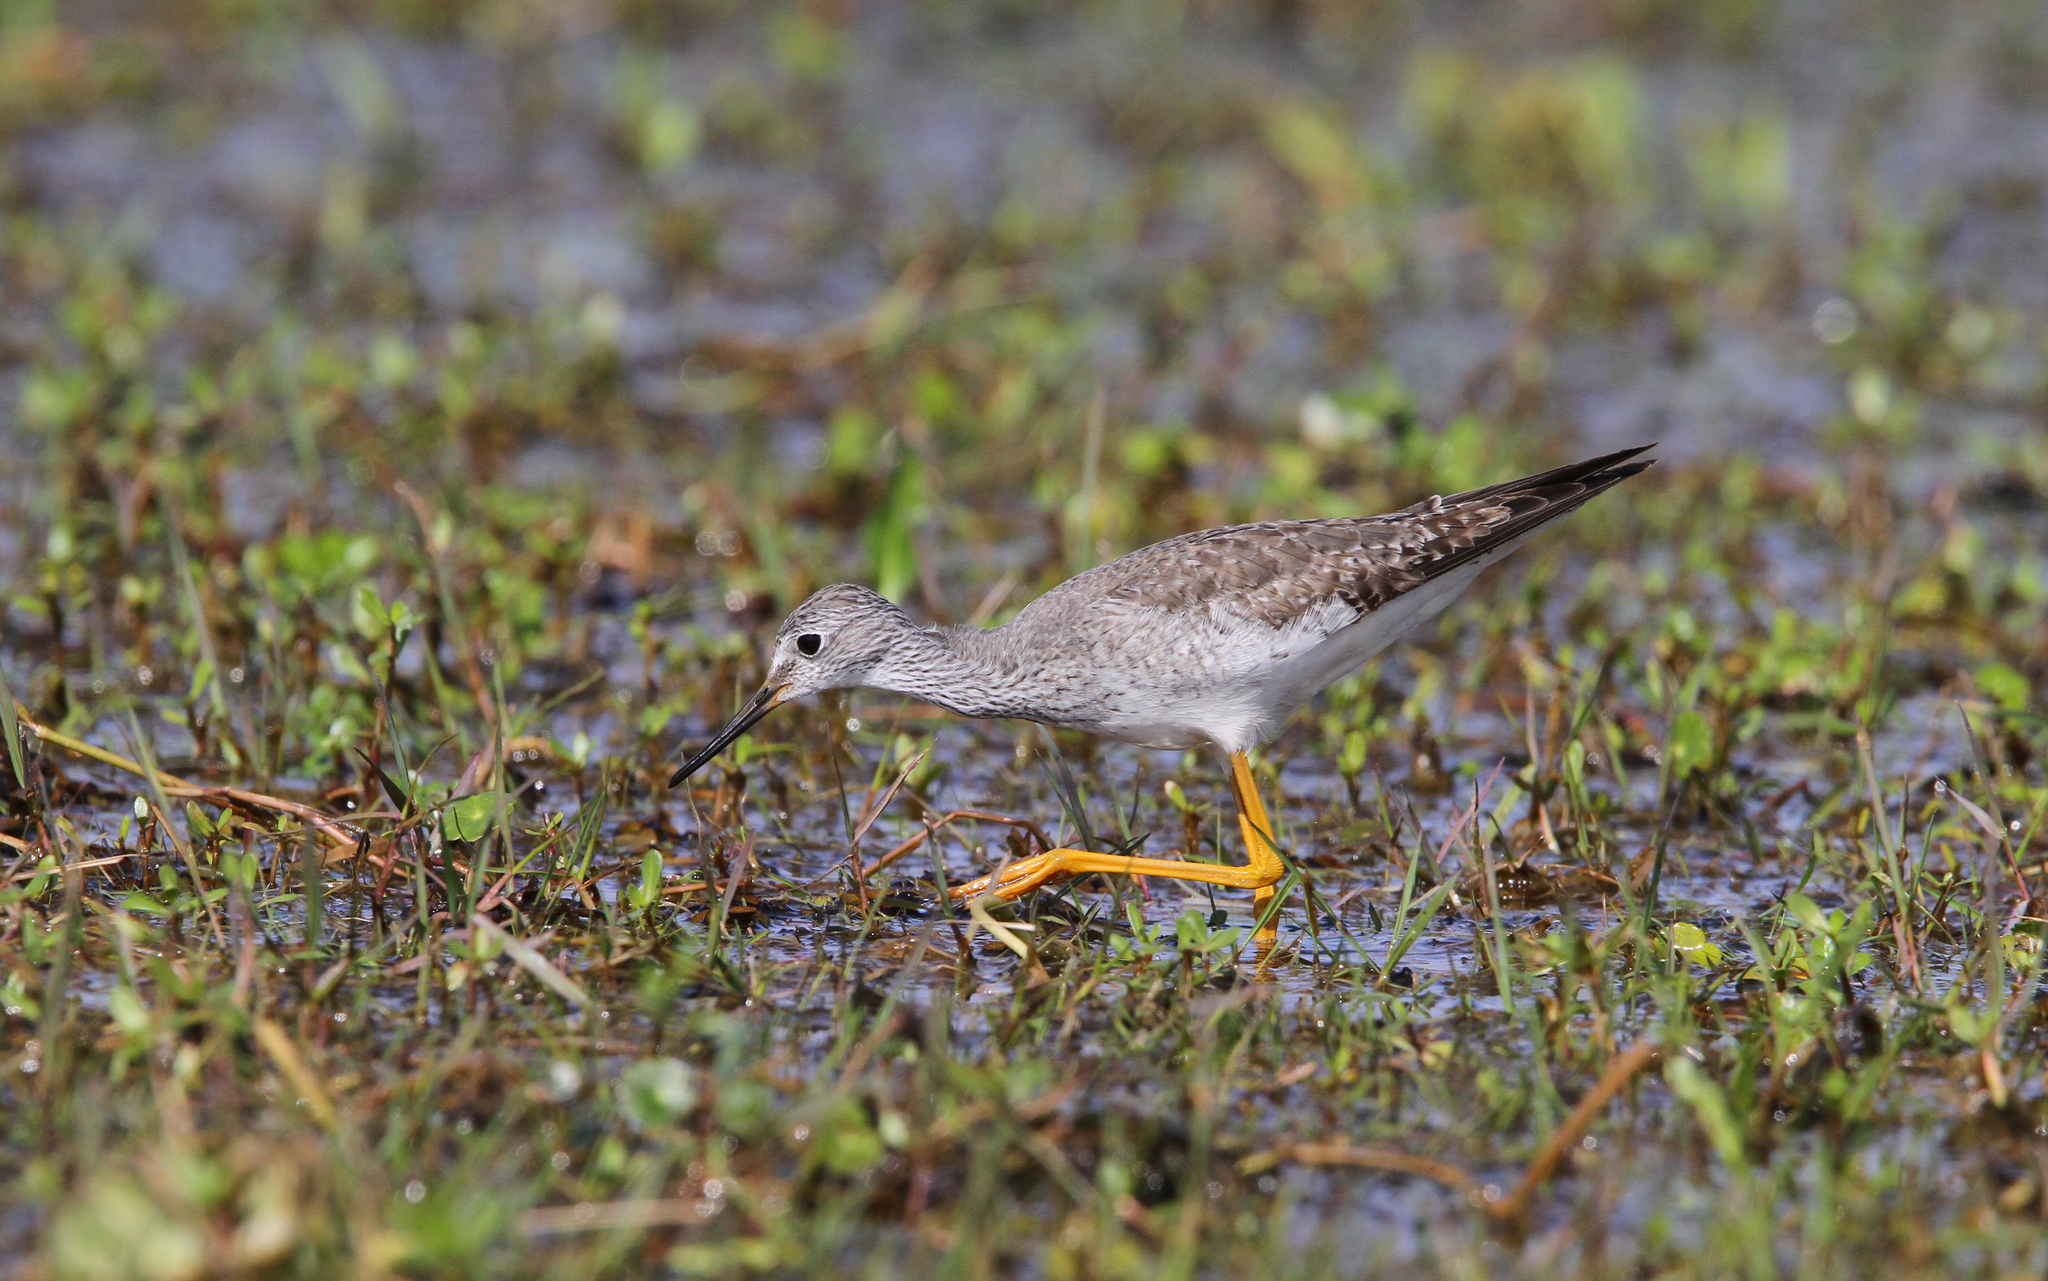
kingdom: Animalia
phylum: Chordata
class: Aves
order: Charadriiformes
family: Scolopacidae
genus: Tringa
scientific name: Tringa flavipes
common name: Lesser yellowlegs
